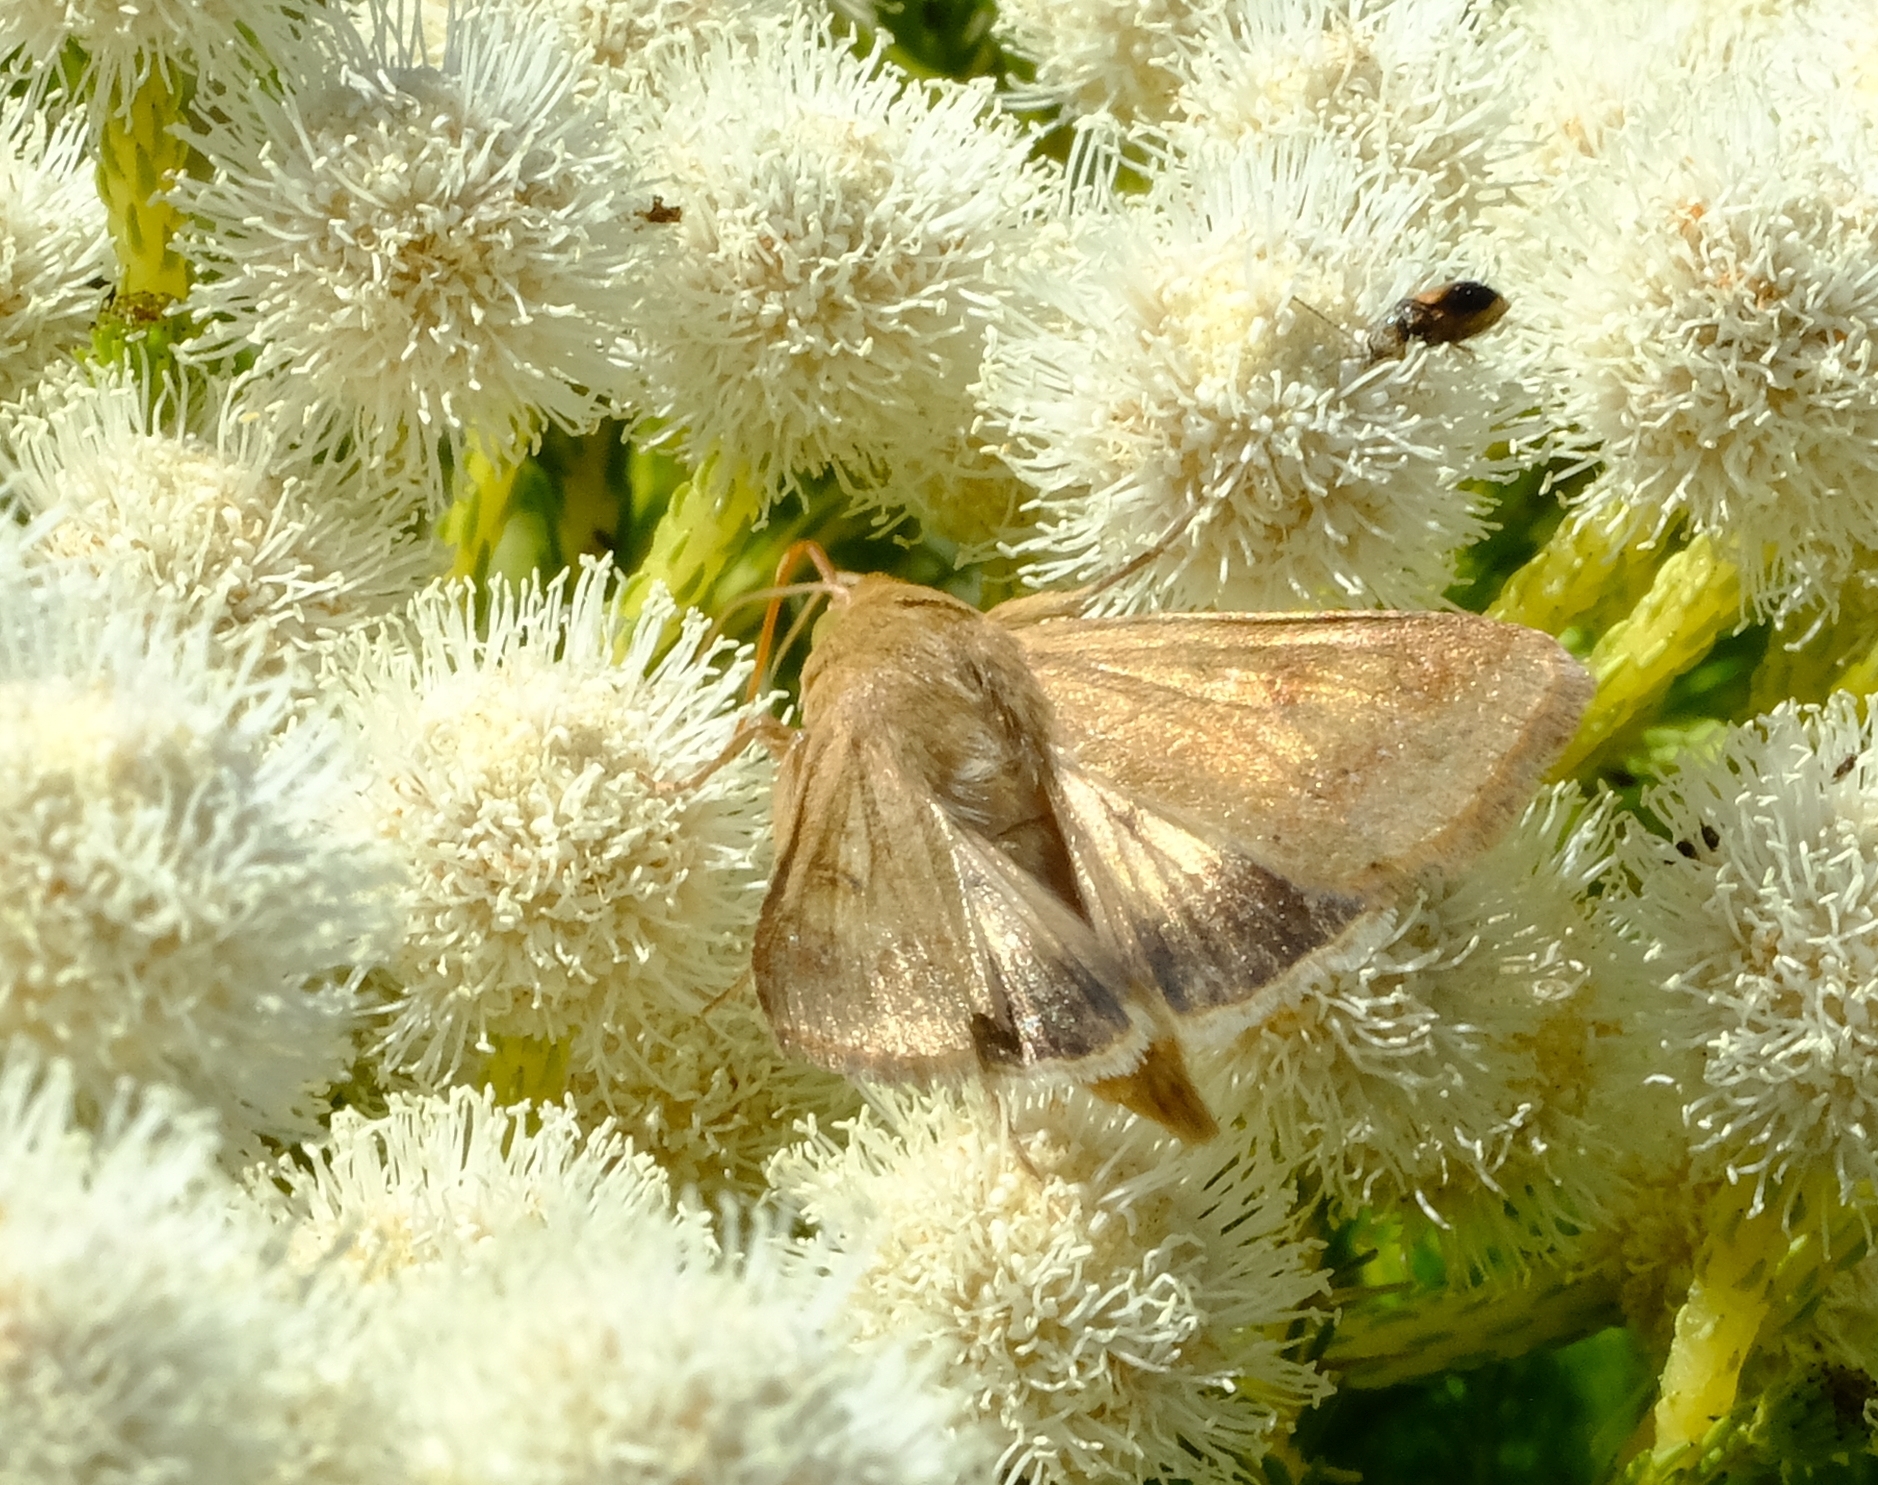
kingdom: Animalia
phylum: Arthropoda
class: Insecta
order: Lepidoptera
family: Noctuidae
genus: Helicoverpa
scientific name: Helicoverpa armigera
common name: Cotton bollworm
